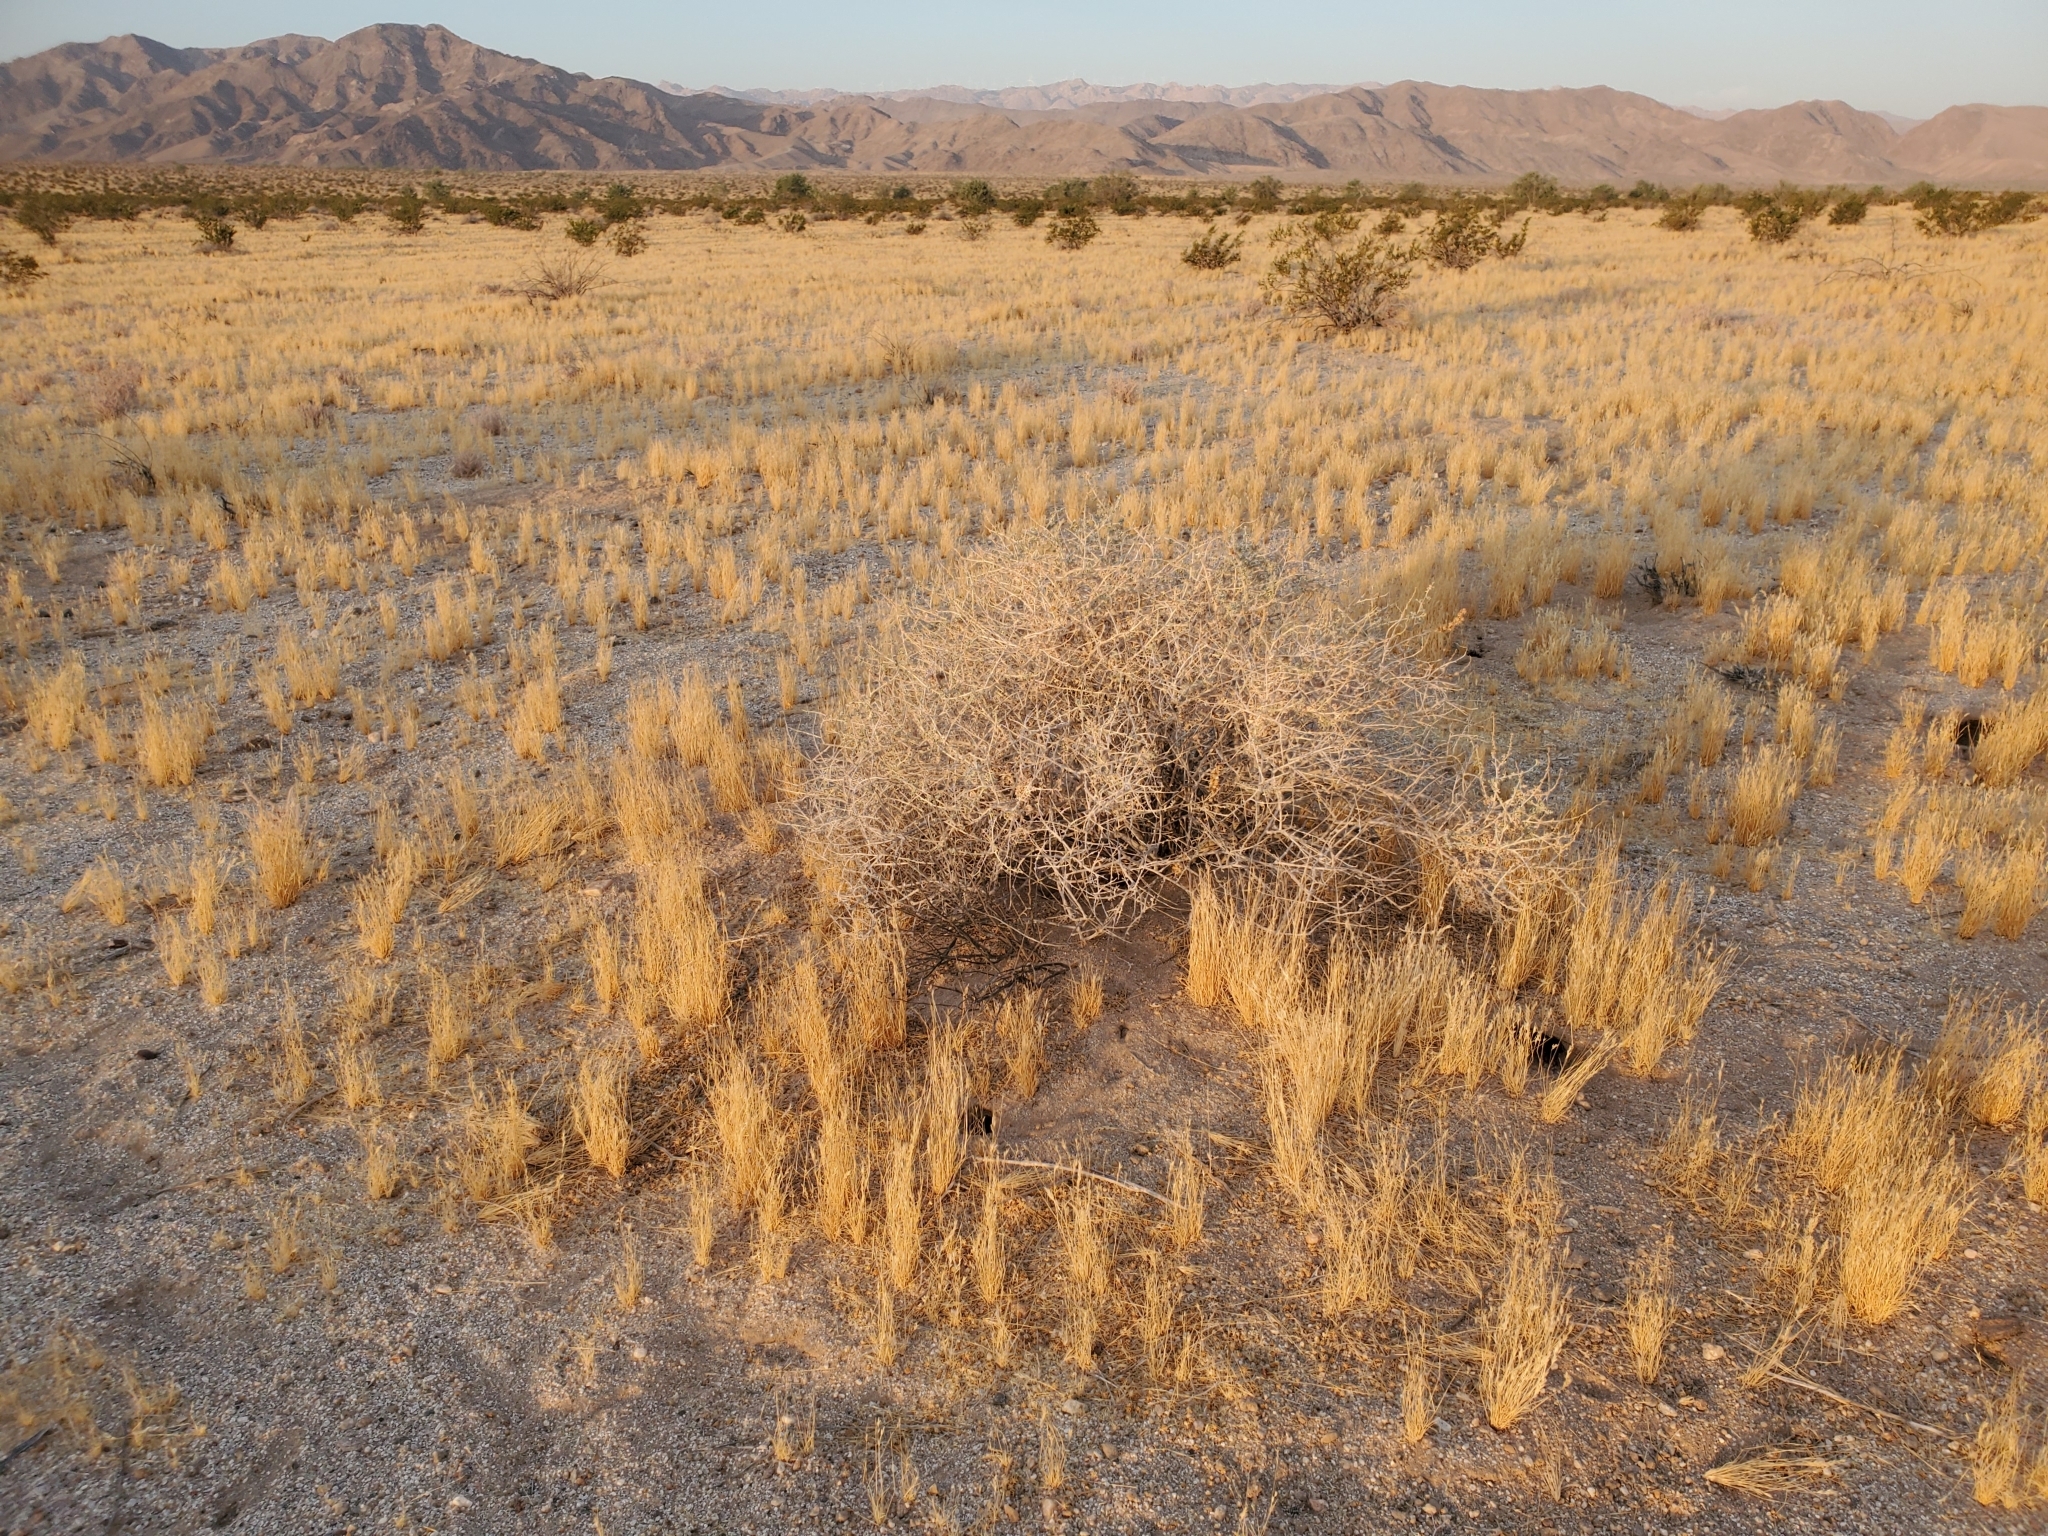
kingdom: Plantae
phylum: Tracheophyta
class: Liliopsida
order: Poales
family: Poaceae
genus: Schismus
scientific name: Schismus barbatus
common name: Kelch-grass
